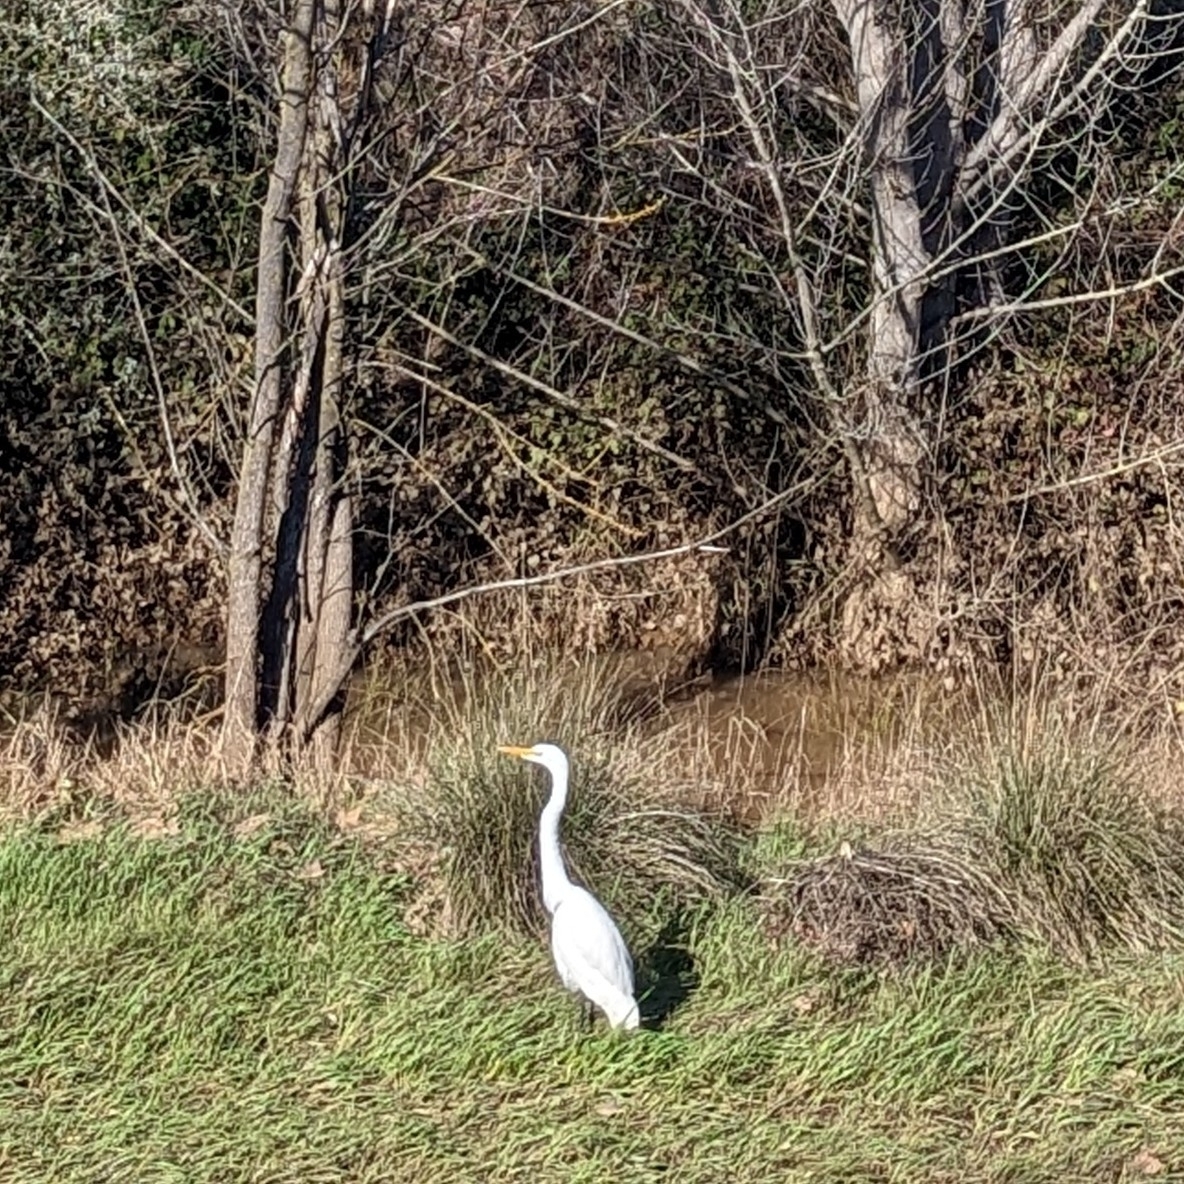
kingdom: Animalia
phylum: Chordata
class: Aves
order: Pelecaniformes
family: Ardeidae
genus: Ardea
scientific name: Ardea alba
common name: Great egret
